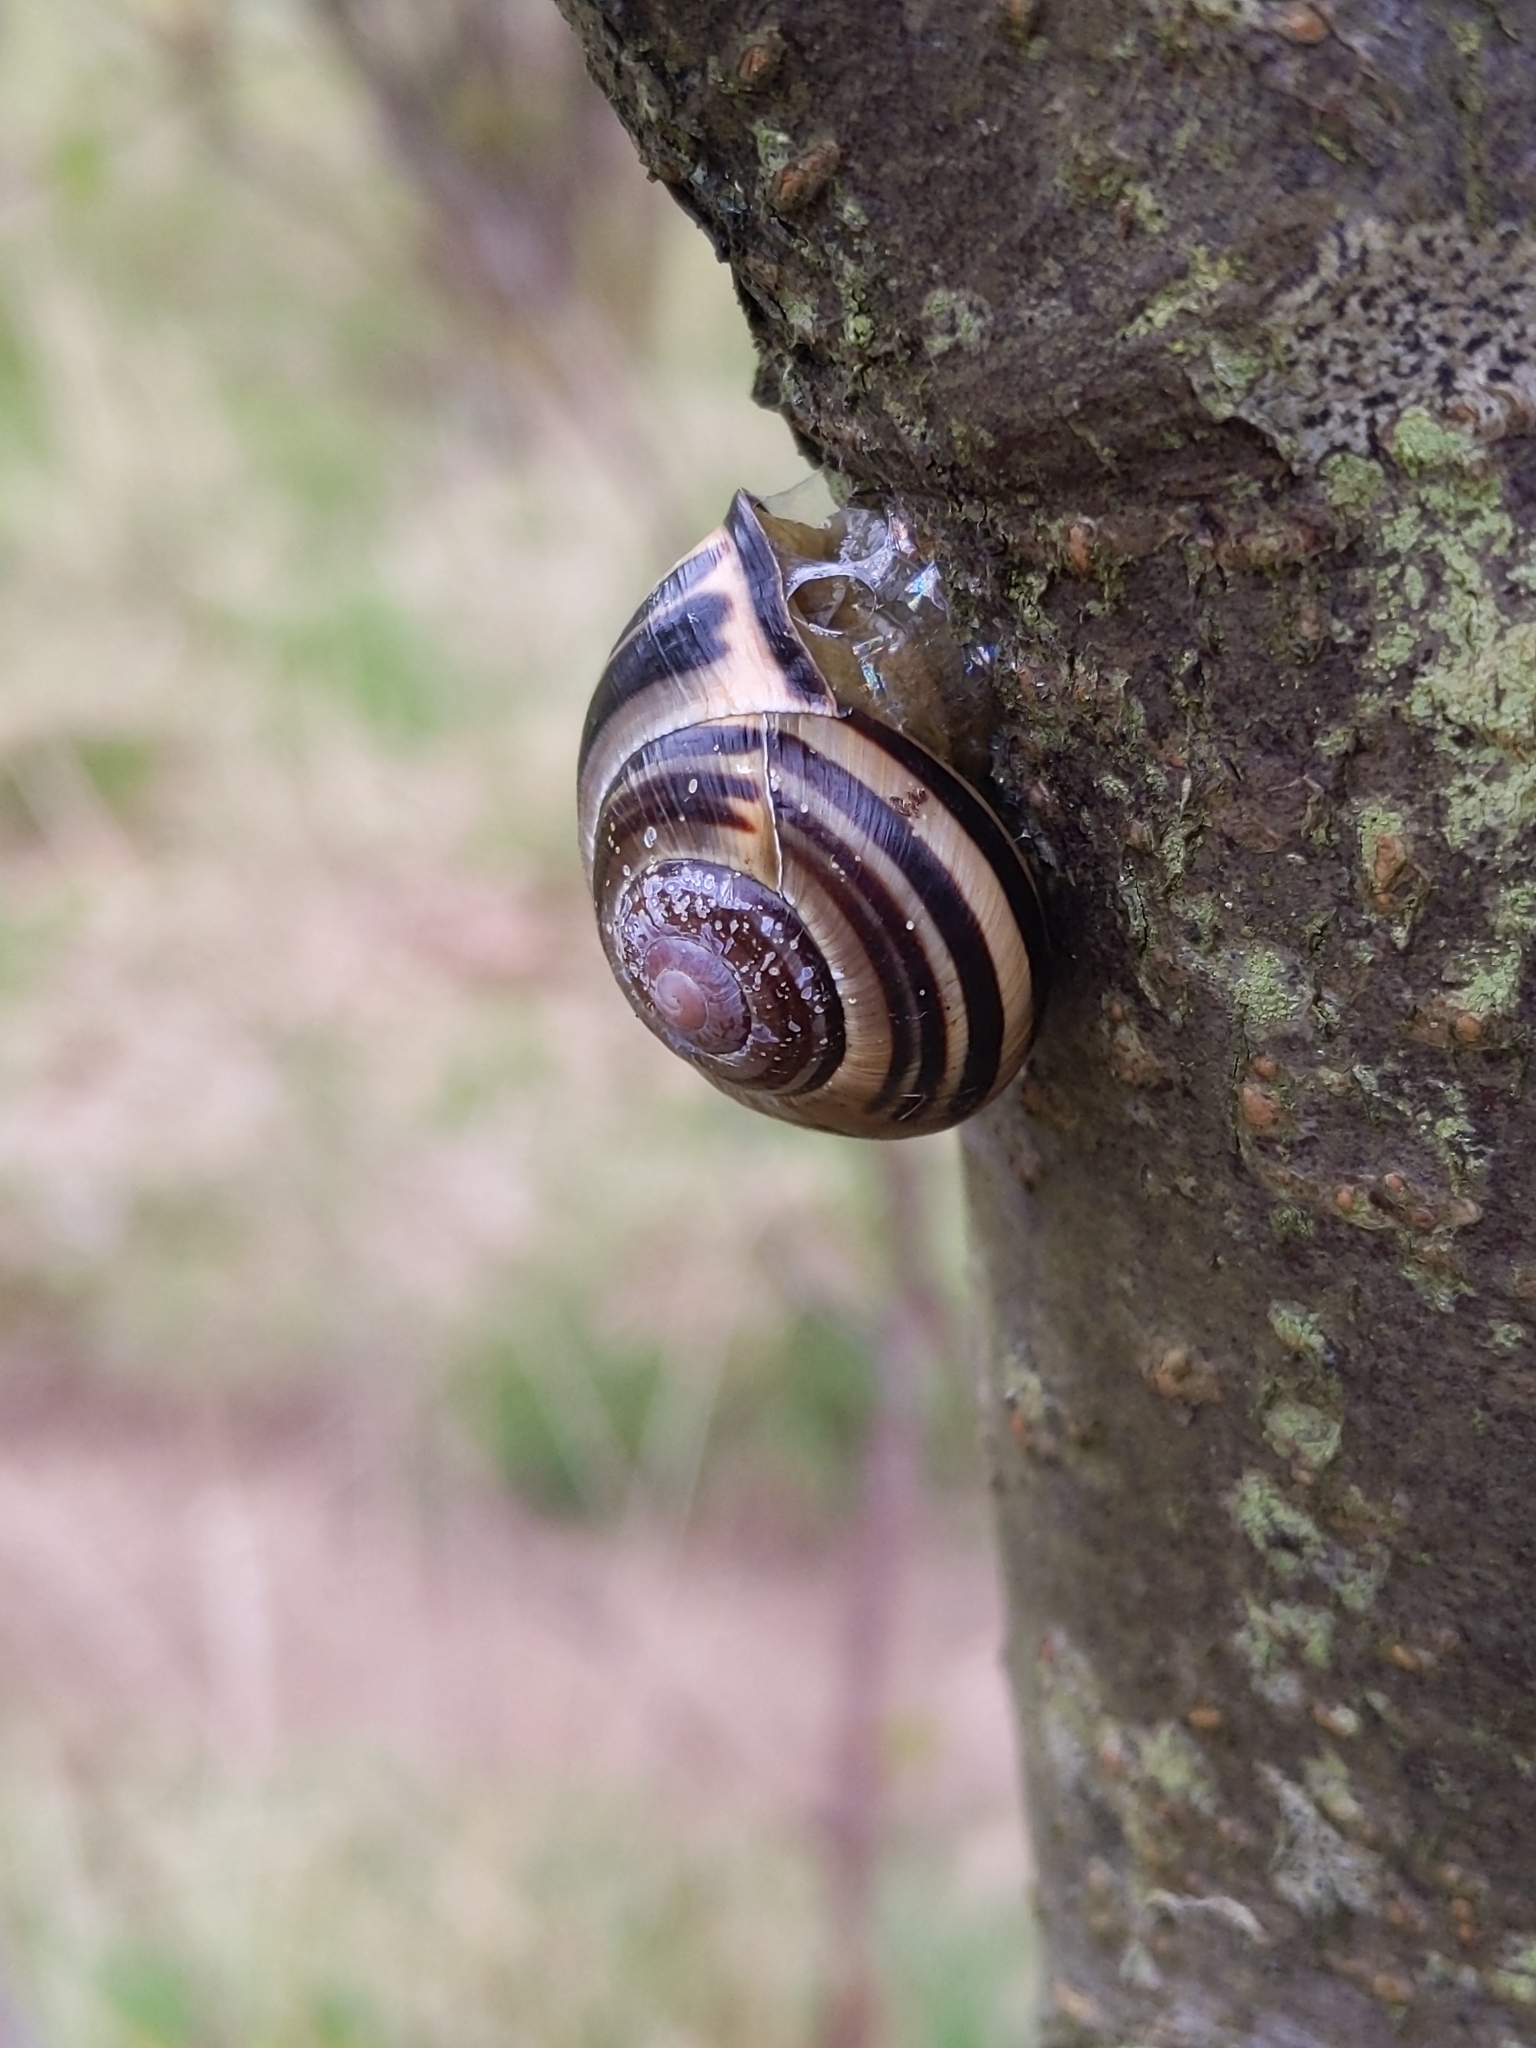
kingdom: Animalia
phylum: Mollusca
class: Gastropoda
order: Stylommatophora
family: Helicidae
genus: Cepaea
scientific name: Cepaea nemoralis
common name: Grovesnail
